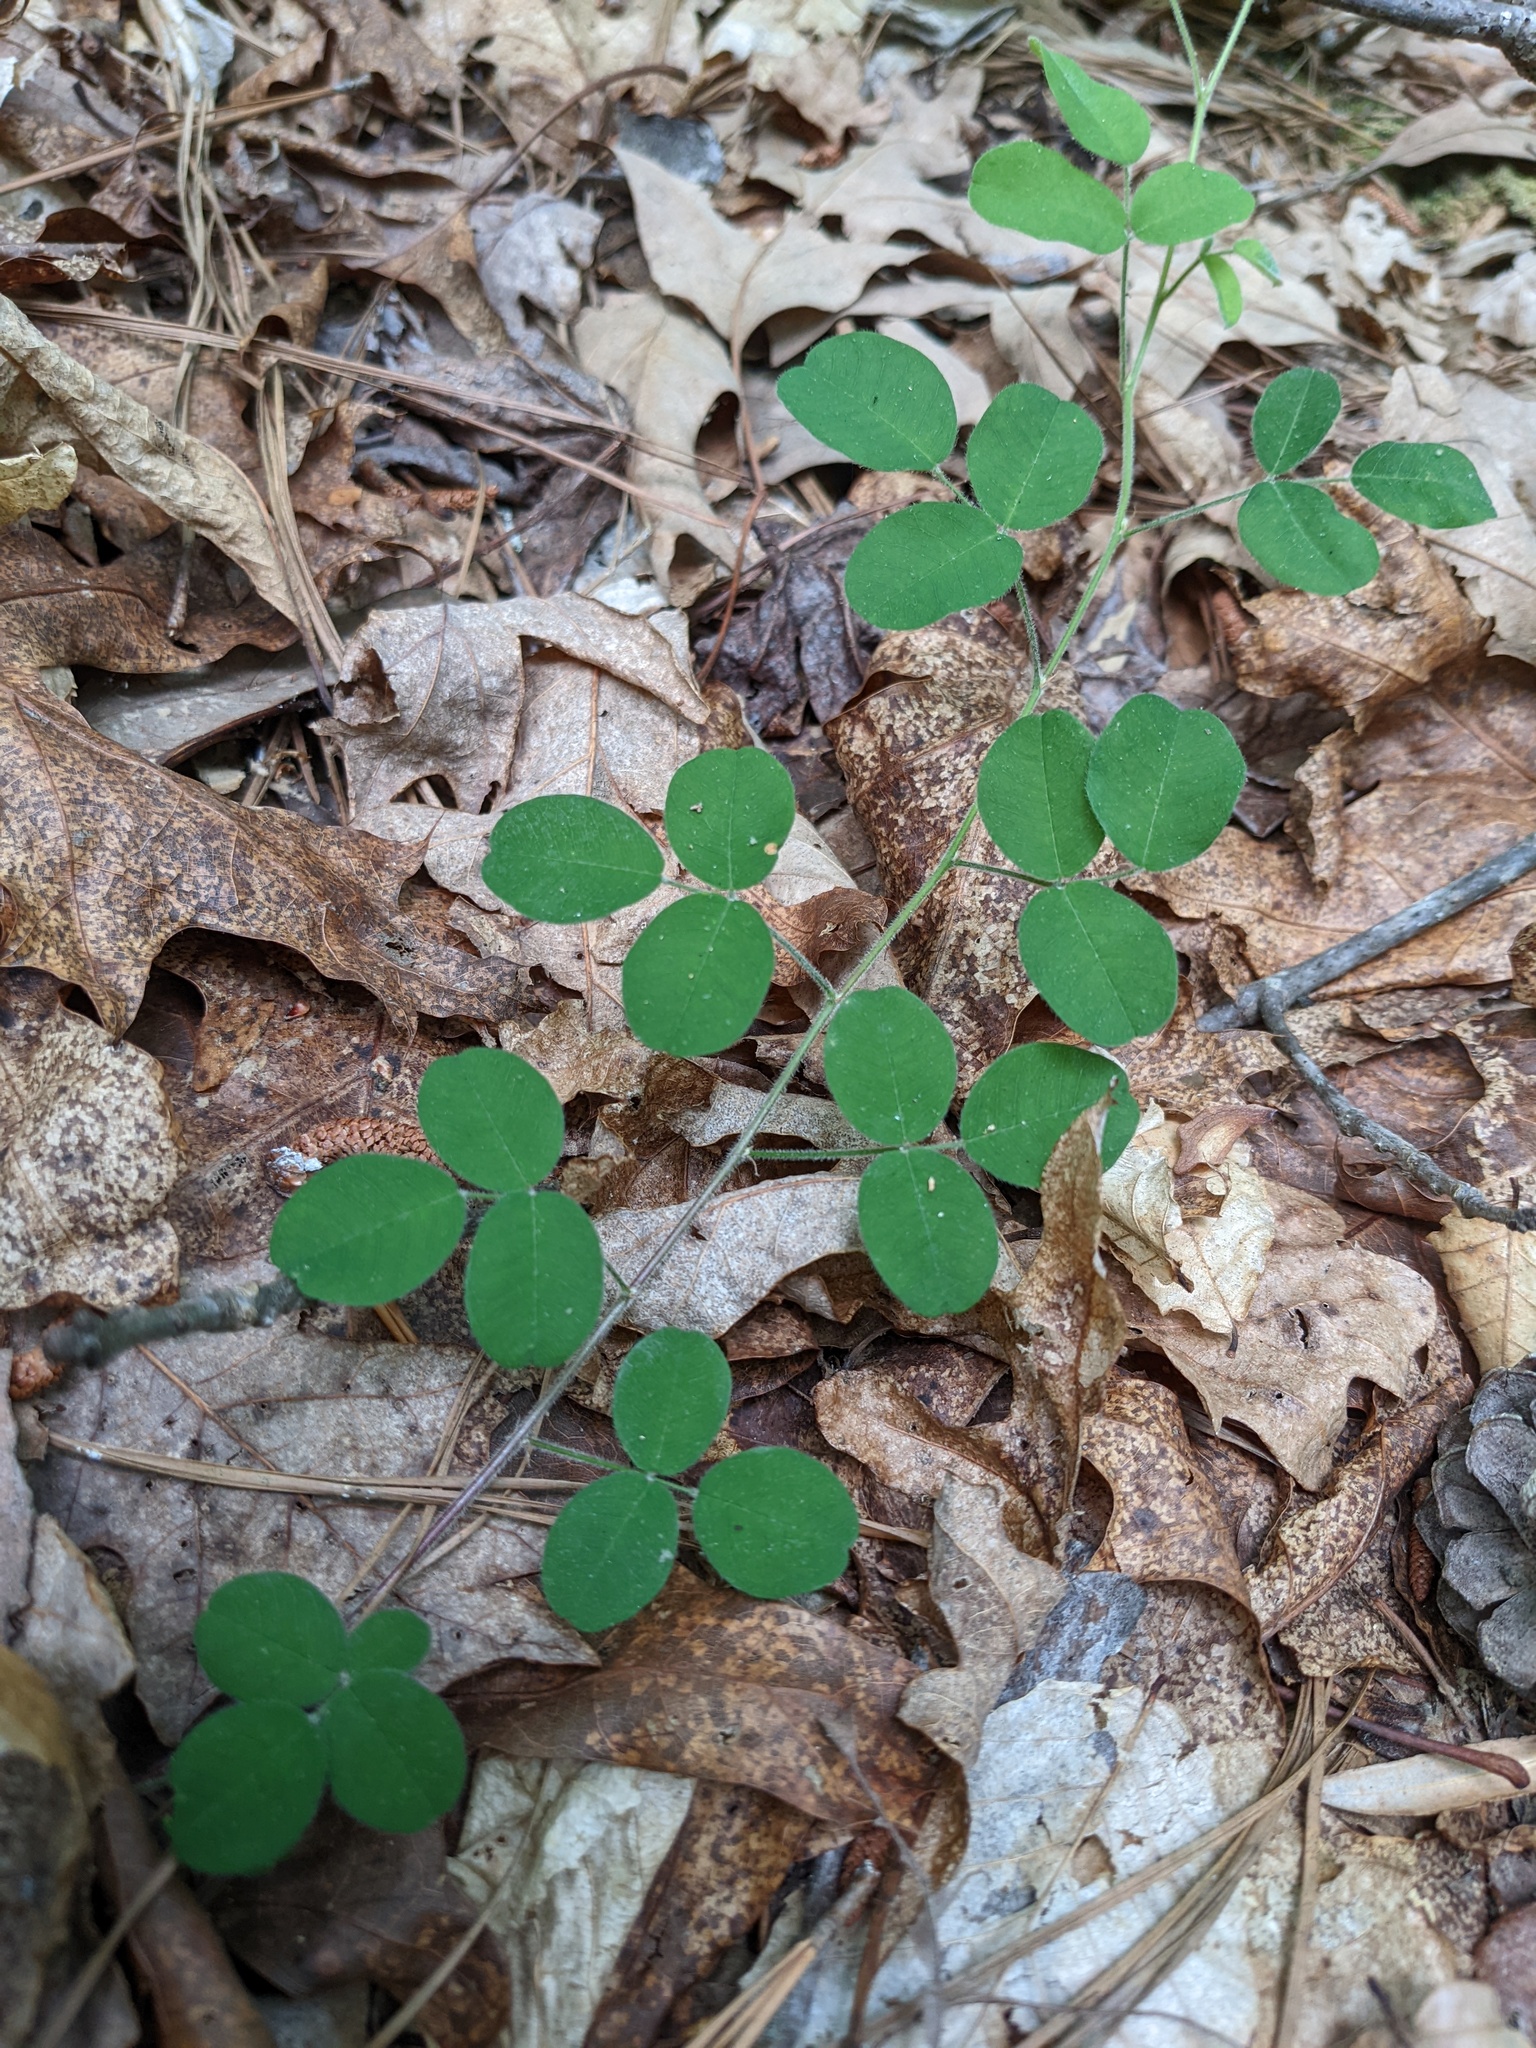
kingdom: Plantae
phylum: Tracheophyta
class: Magnoliopsida
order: Fabales
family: Fabaceae
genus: Lespedeza
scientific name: Lespedeza procumbens
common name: Downy trailing bush-clover
